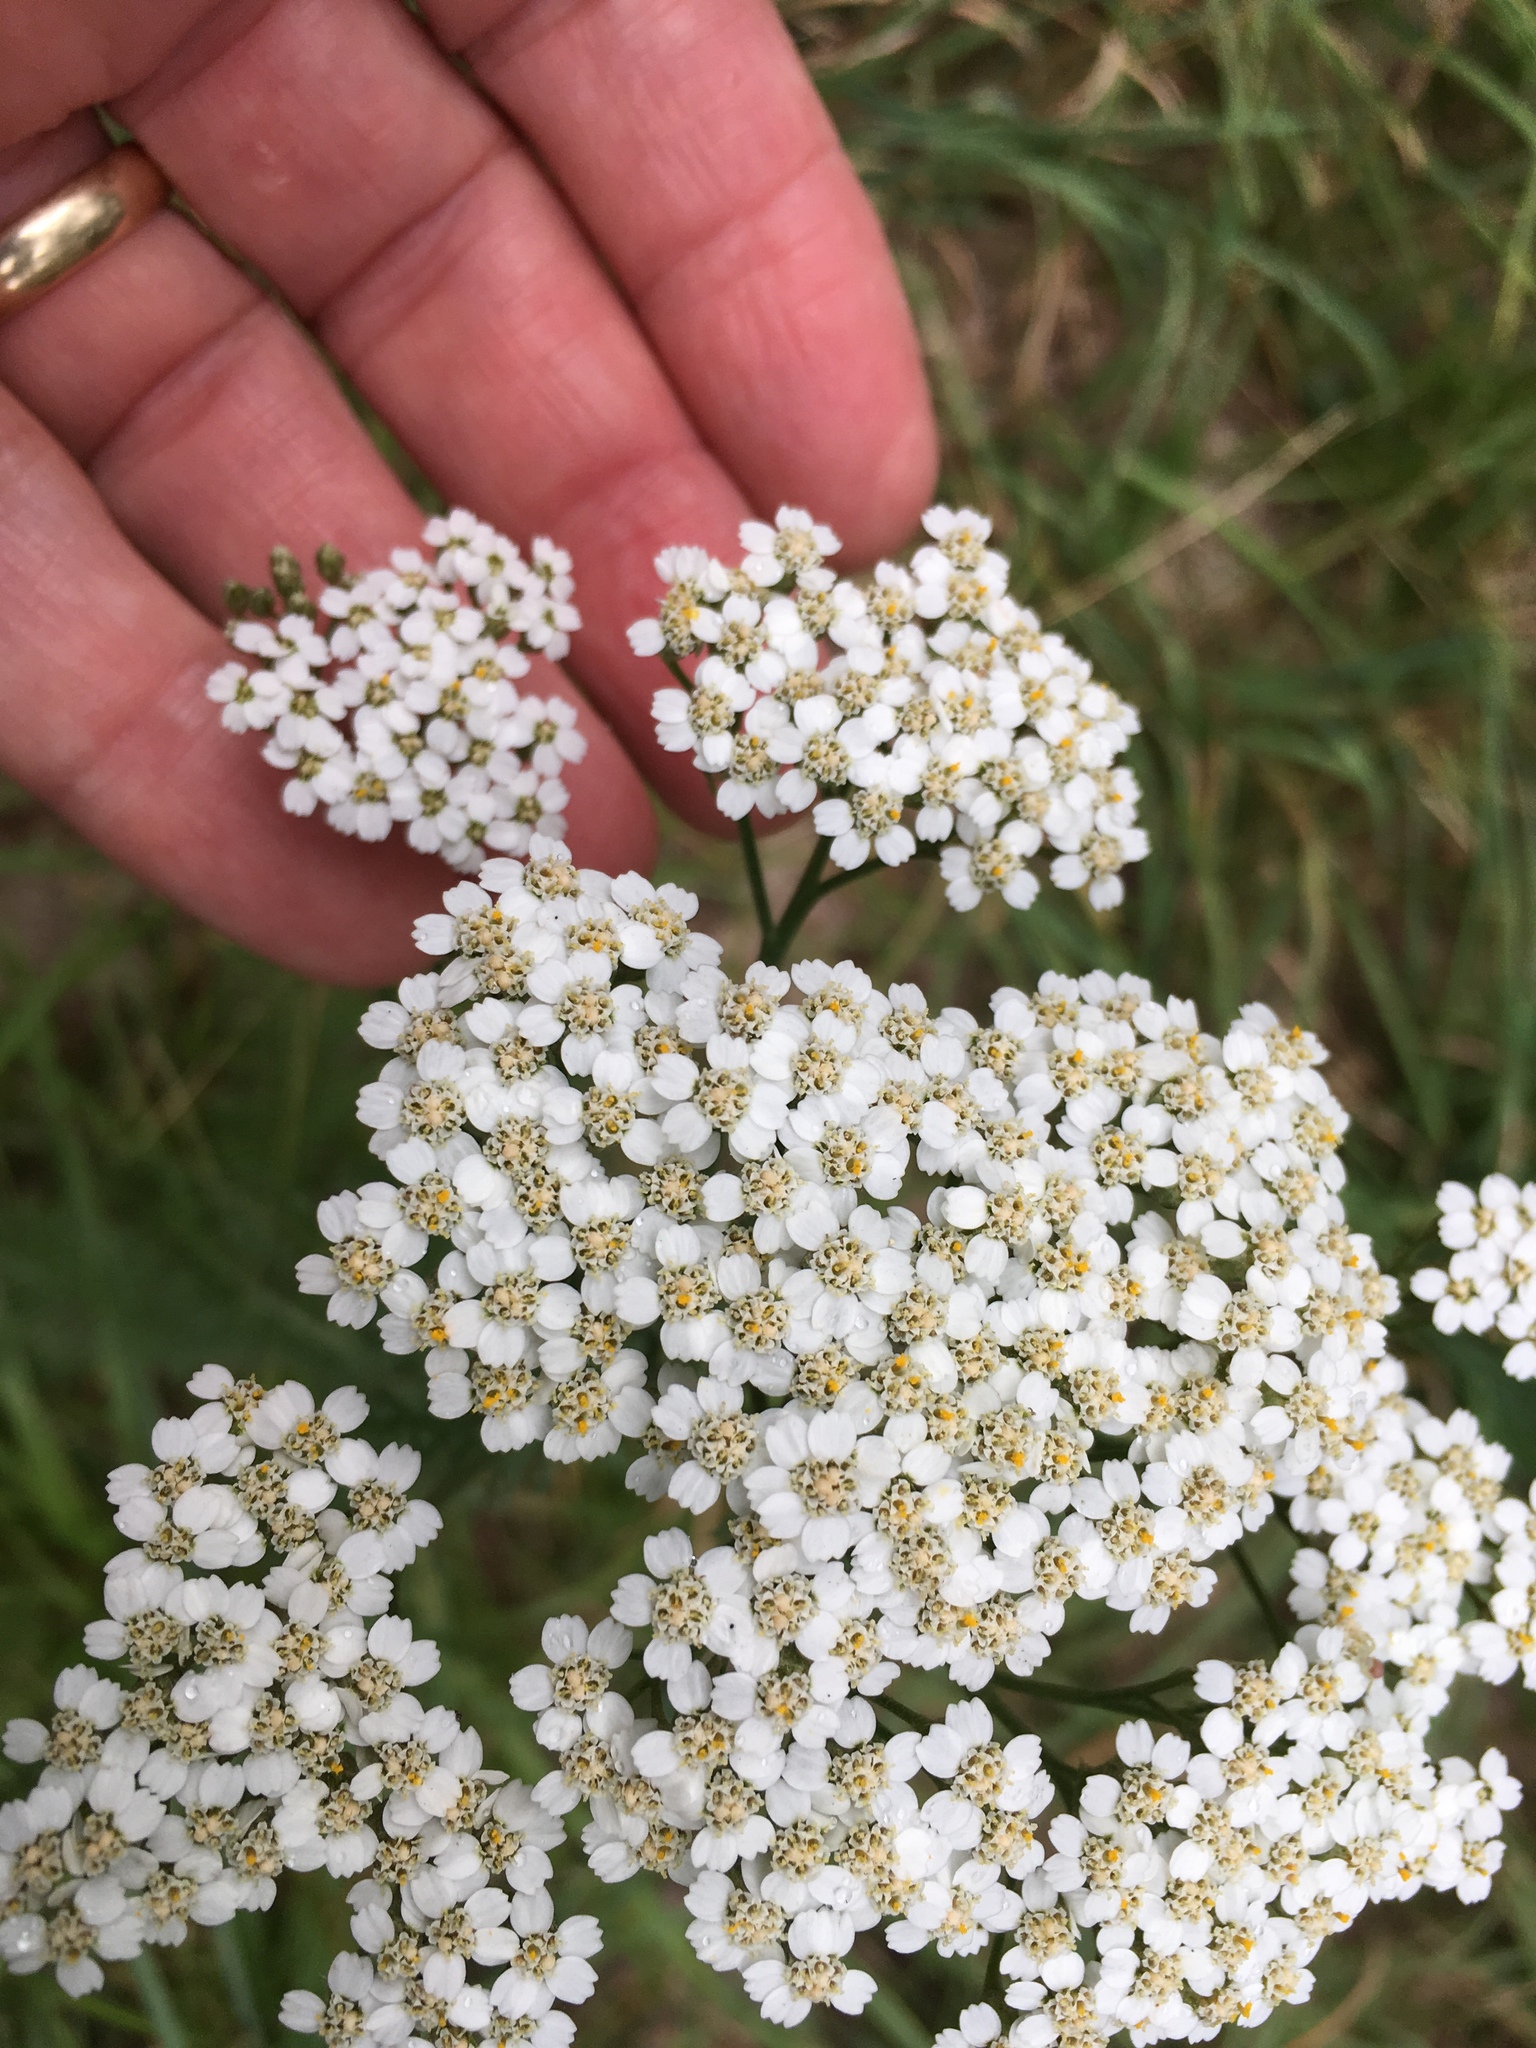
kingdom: Plantae
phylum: Tracheophyta
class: Magnoliopsida
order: Asterales
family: Asteraceae
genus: Achillea
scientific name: Achillea millefolium
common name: Yarrow
